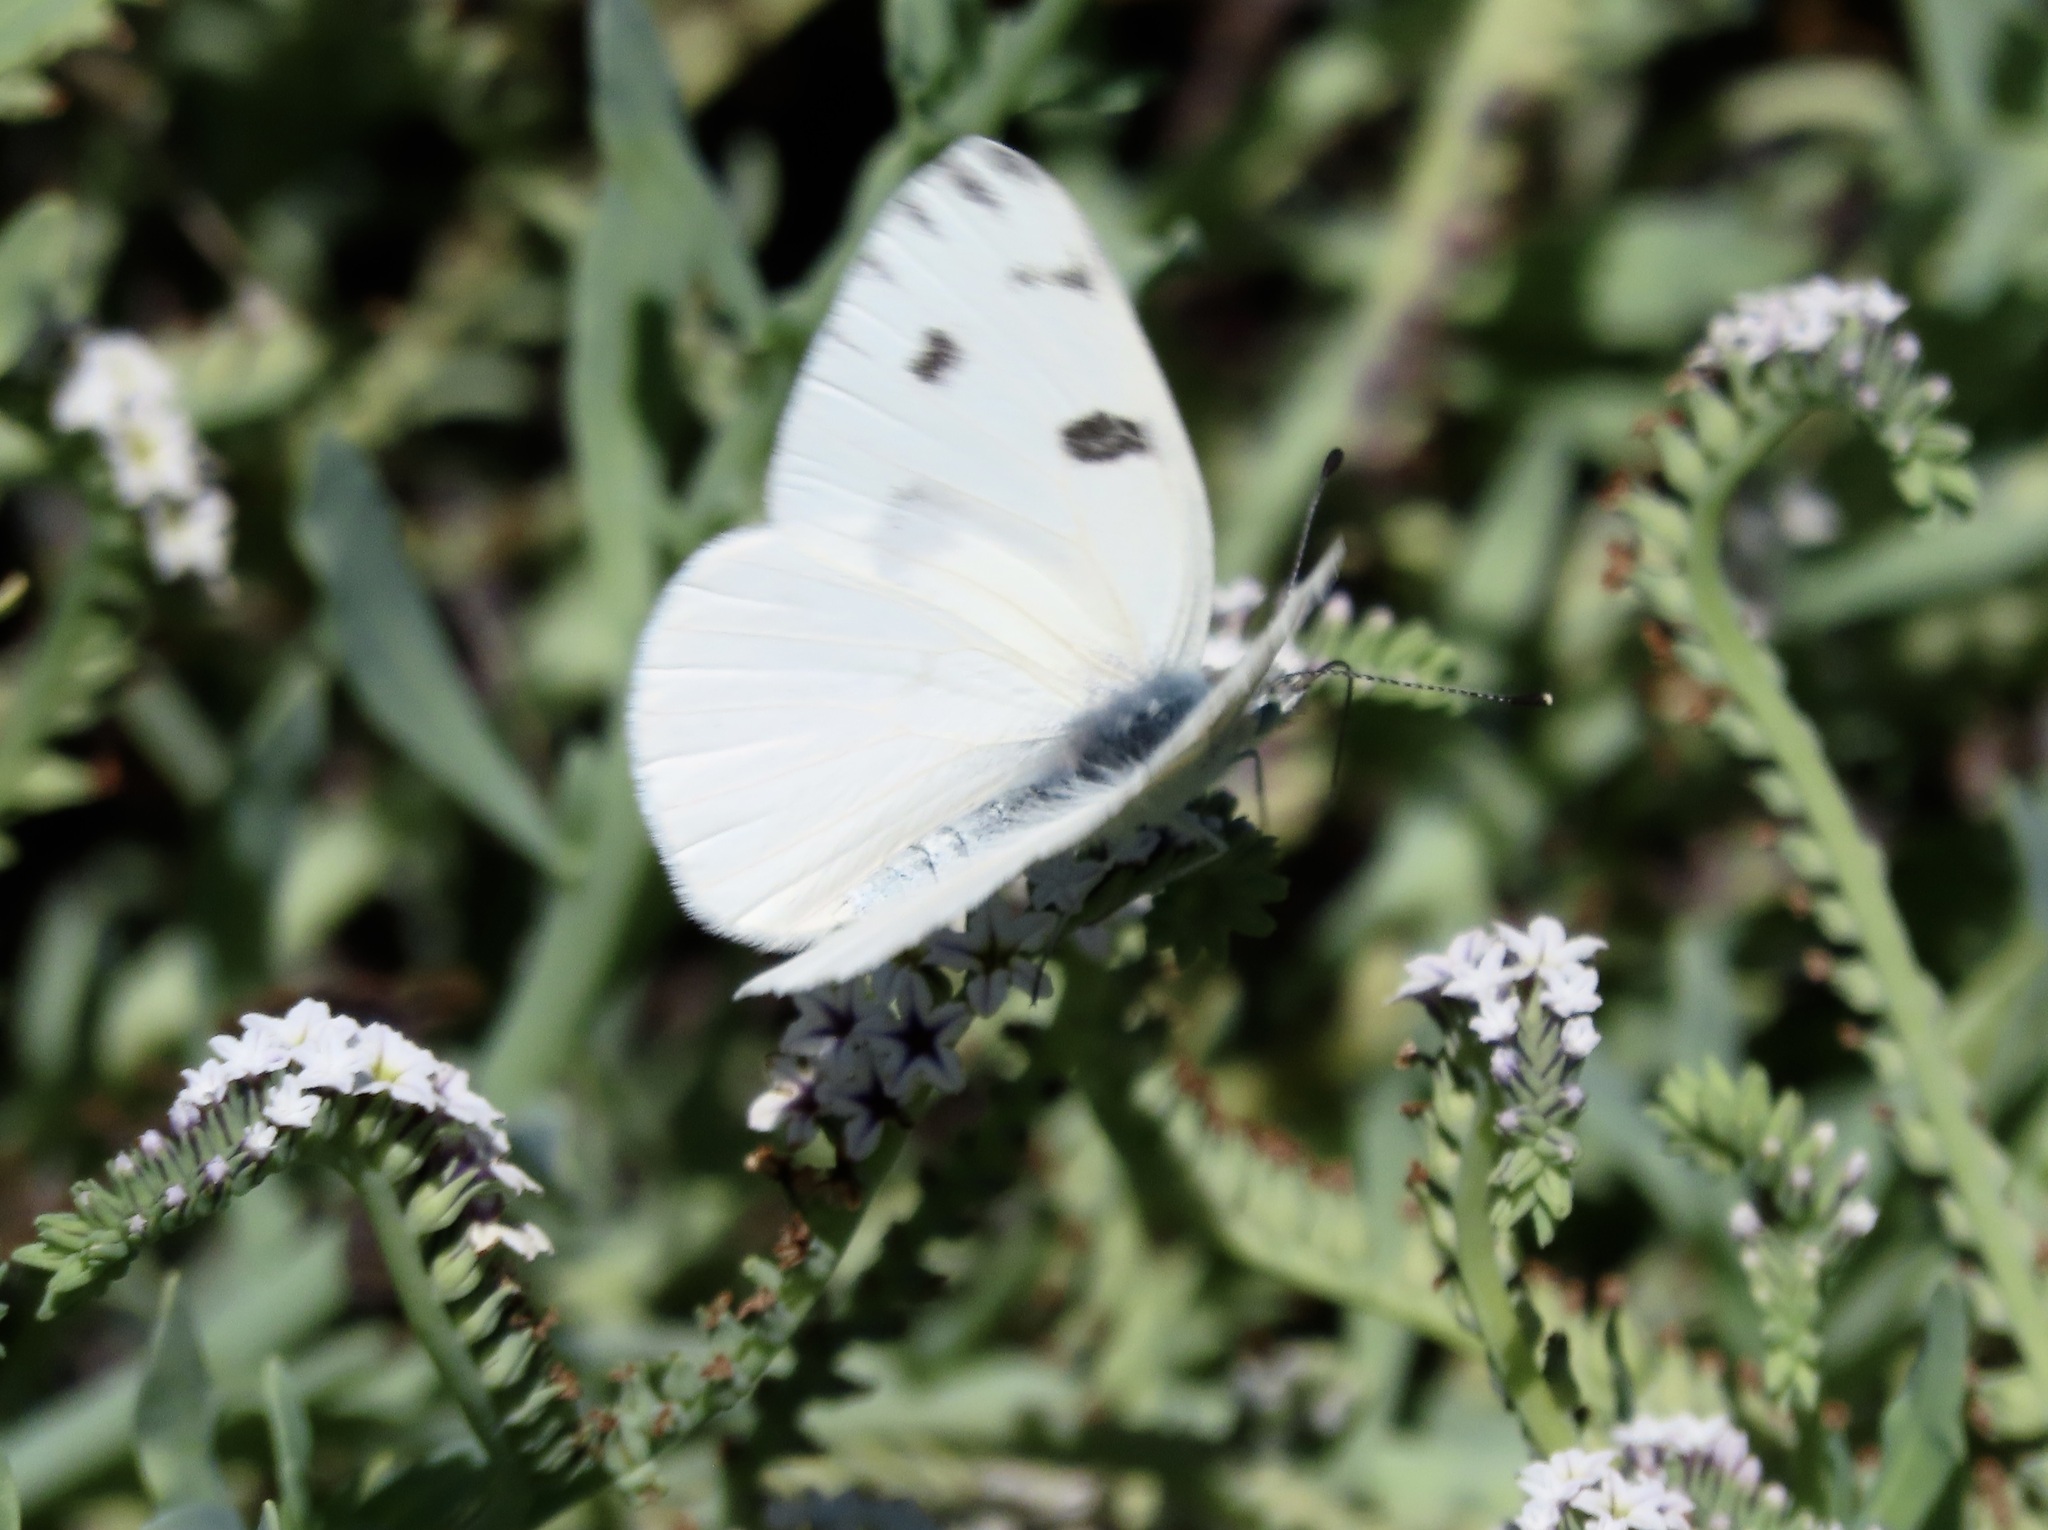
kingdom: Animalia
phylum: Arthropoda
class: Insecta
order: Lepidoptera
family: Pieridae
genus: Pontia
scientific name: Pontia protodice
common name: Checkered white
